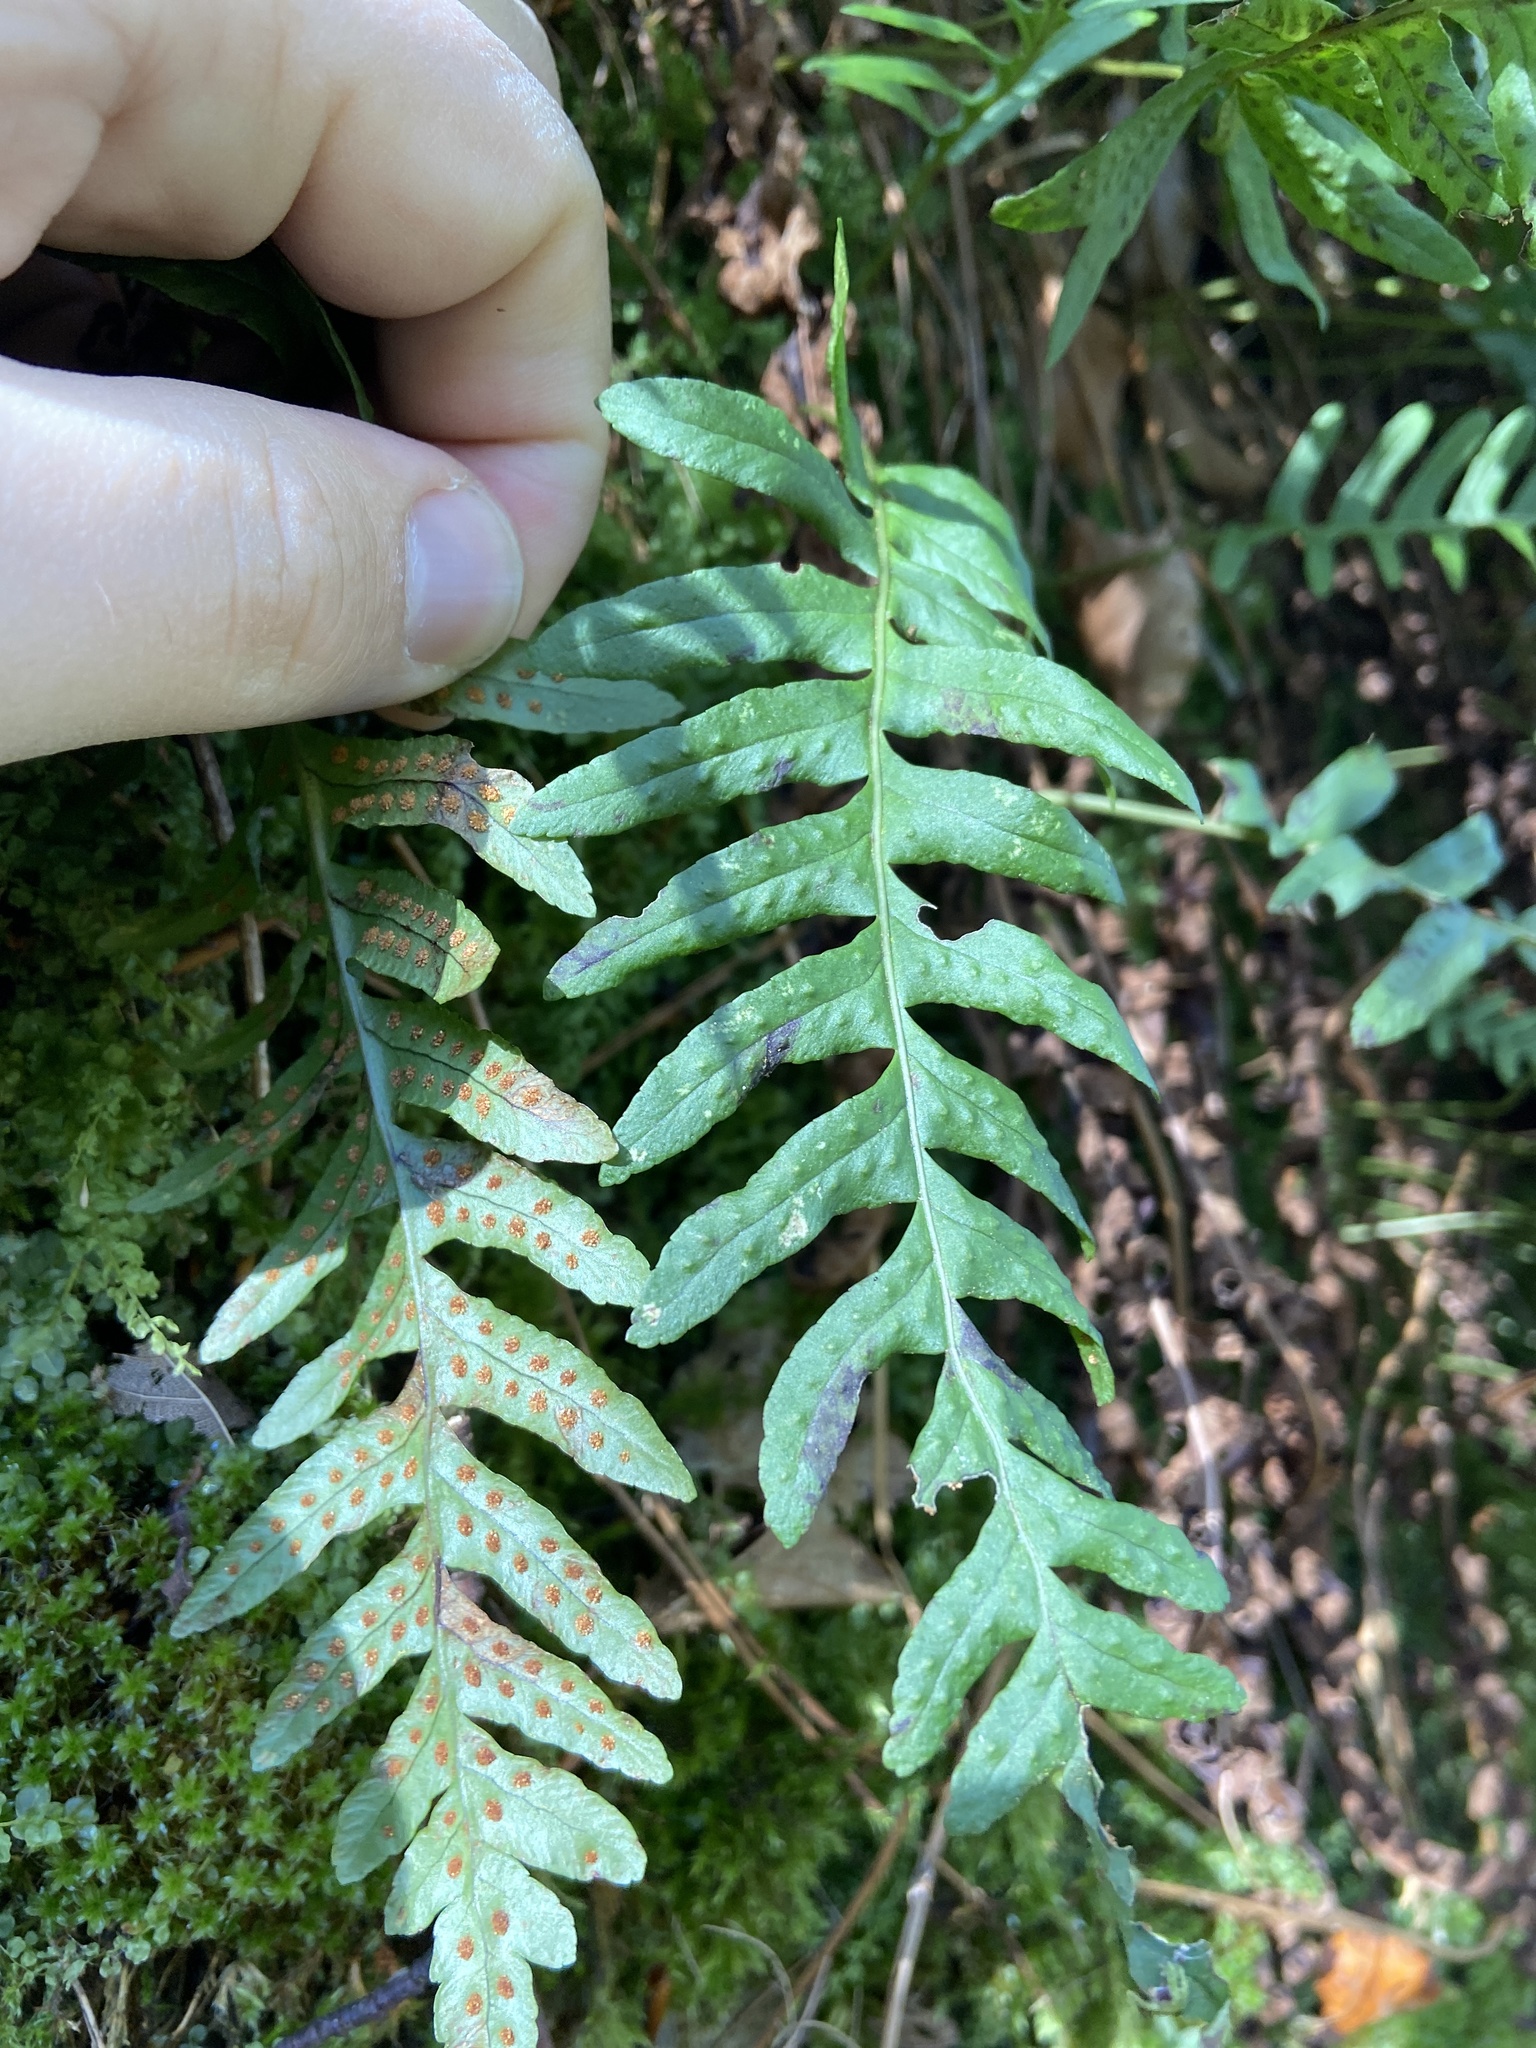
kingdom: Plantae
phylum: Tracheophyta
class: Polypodiopsida
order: Polypodiales
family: Polypodiaceae
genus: Polypodium
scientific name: Polypodium vulgare
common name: Common polypody
